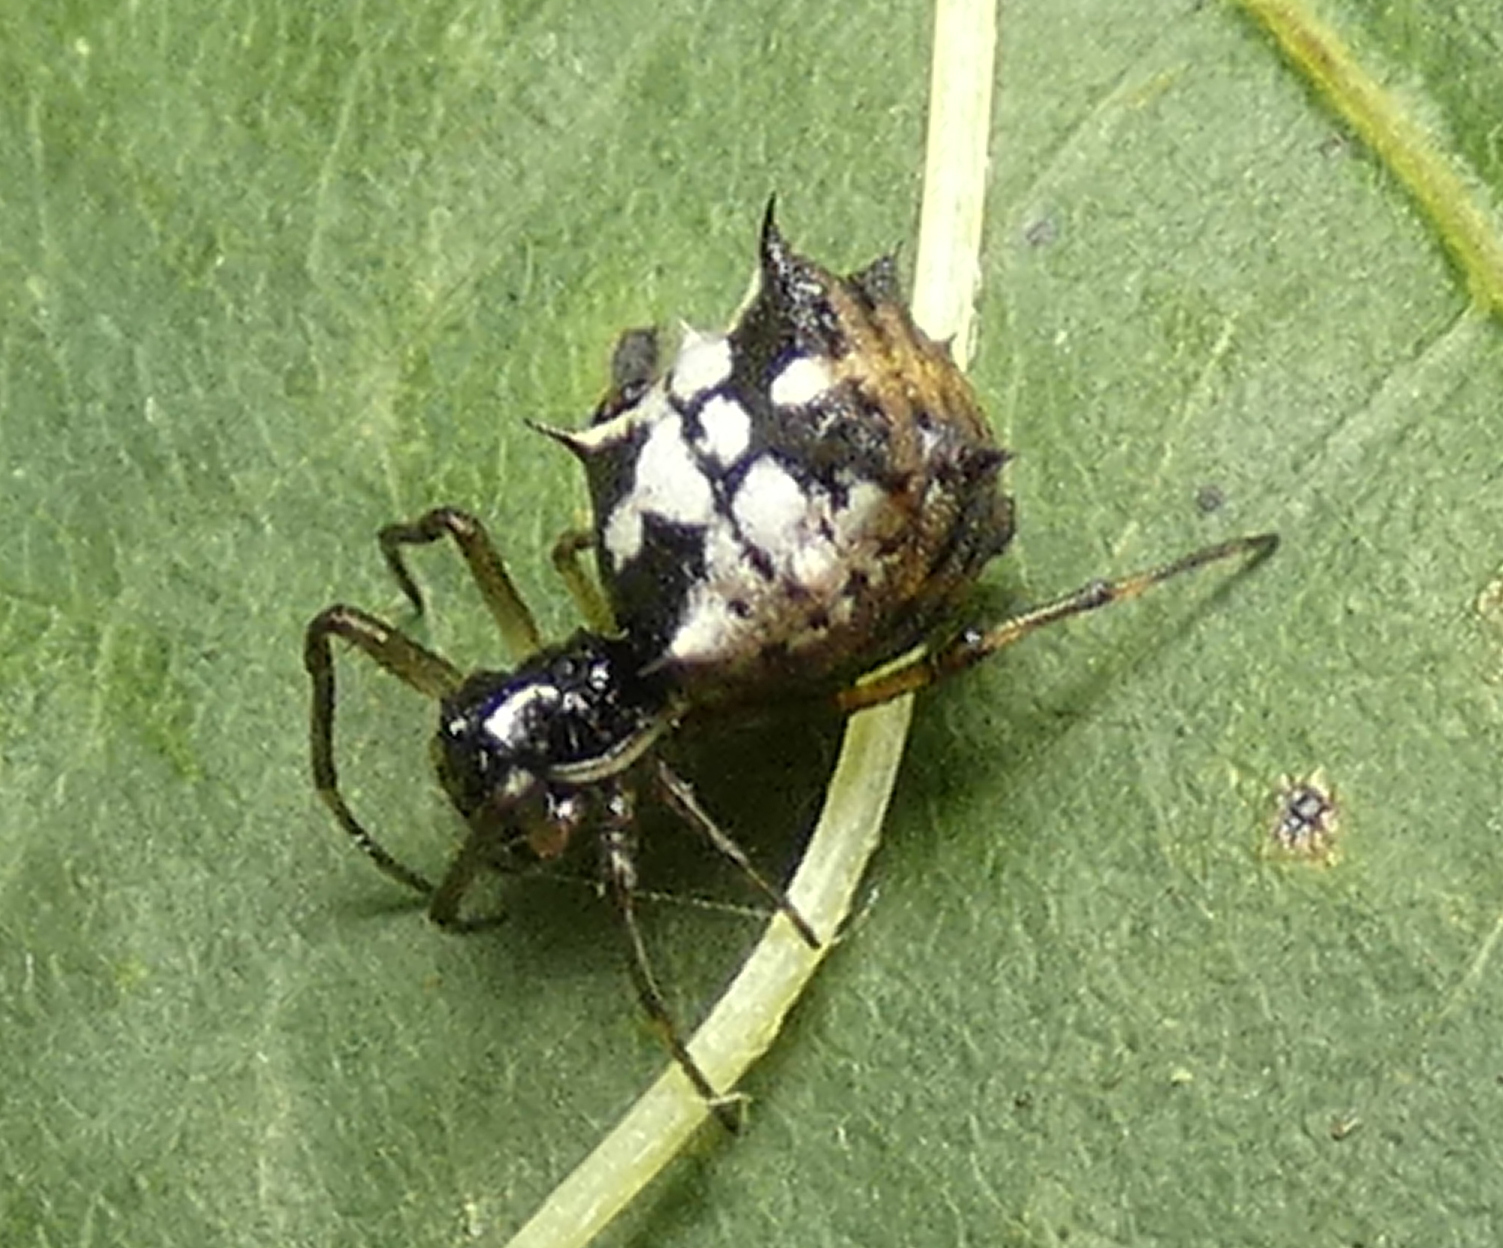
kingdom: Animalia
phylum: Arthropoda
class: Arachnida
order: Araneae
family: Araneidae
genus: Micrathena
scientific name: Micrathena picta
